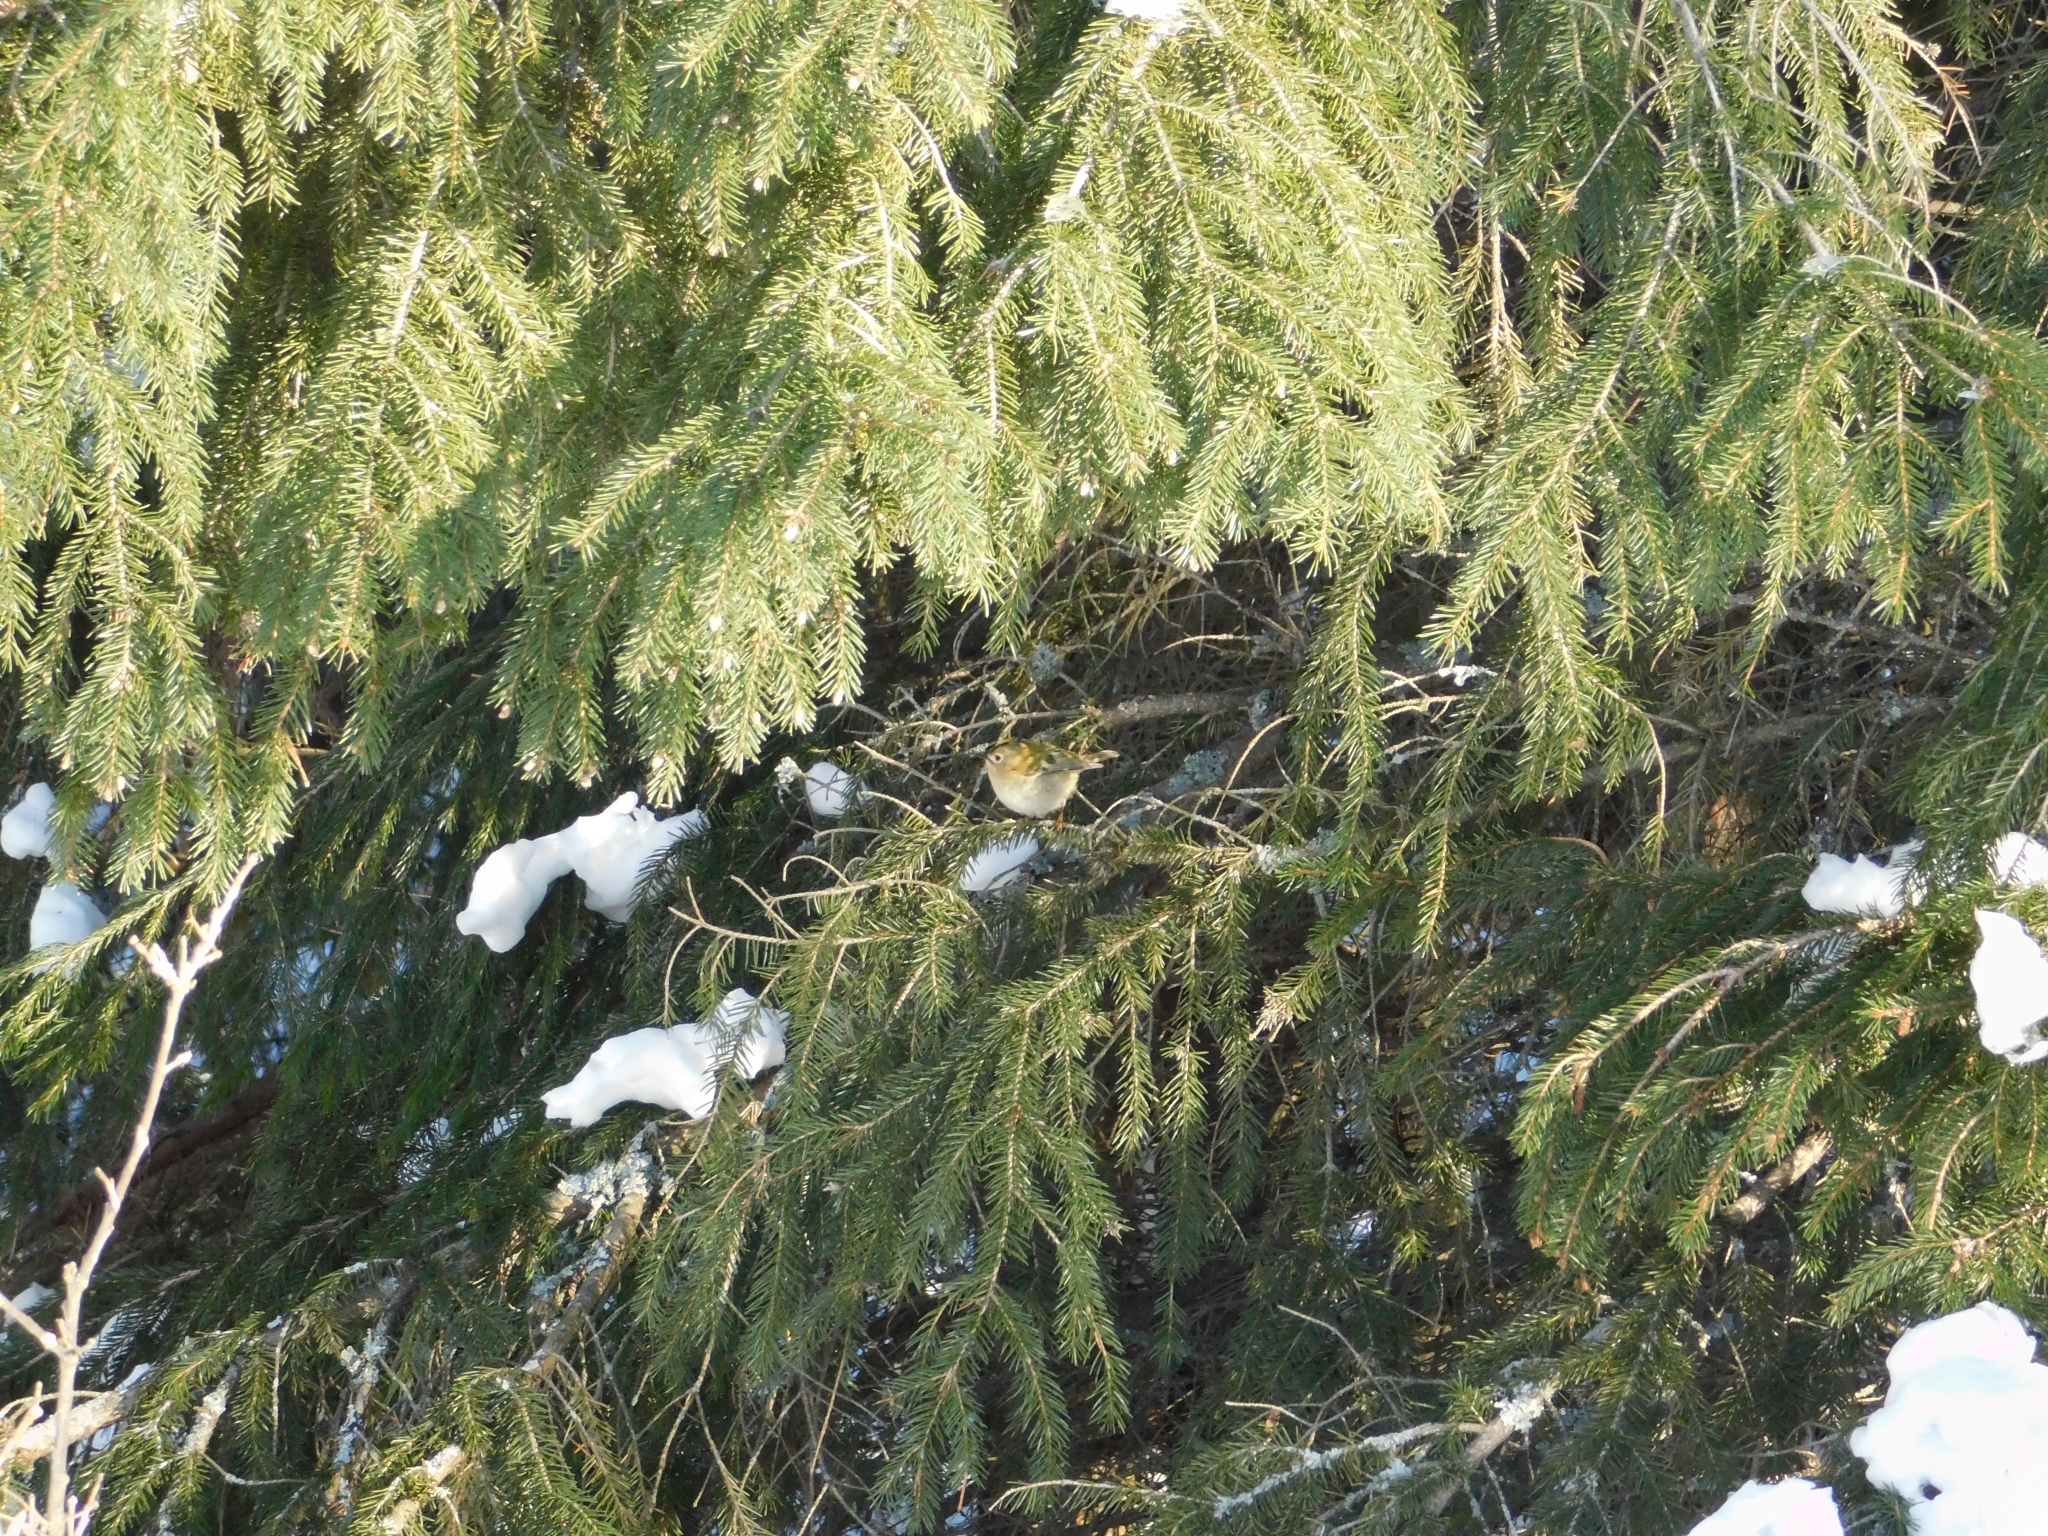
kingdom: Animalia
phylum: Chordata
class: Aves
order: Passeriformes
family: Regulidae
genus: Regulus
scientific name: Regulus regulus
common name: Goldcrest
